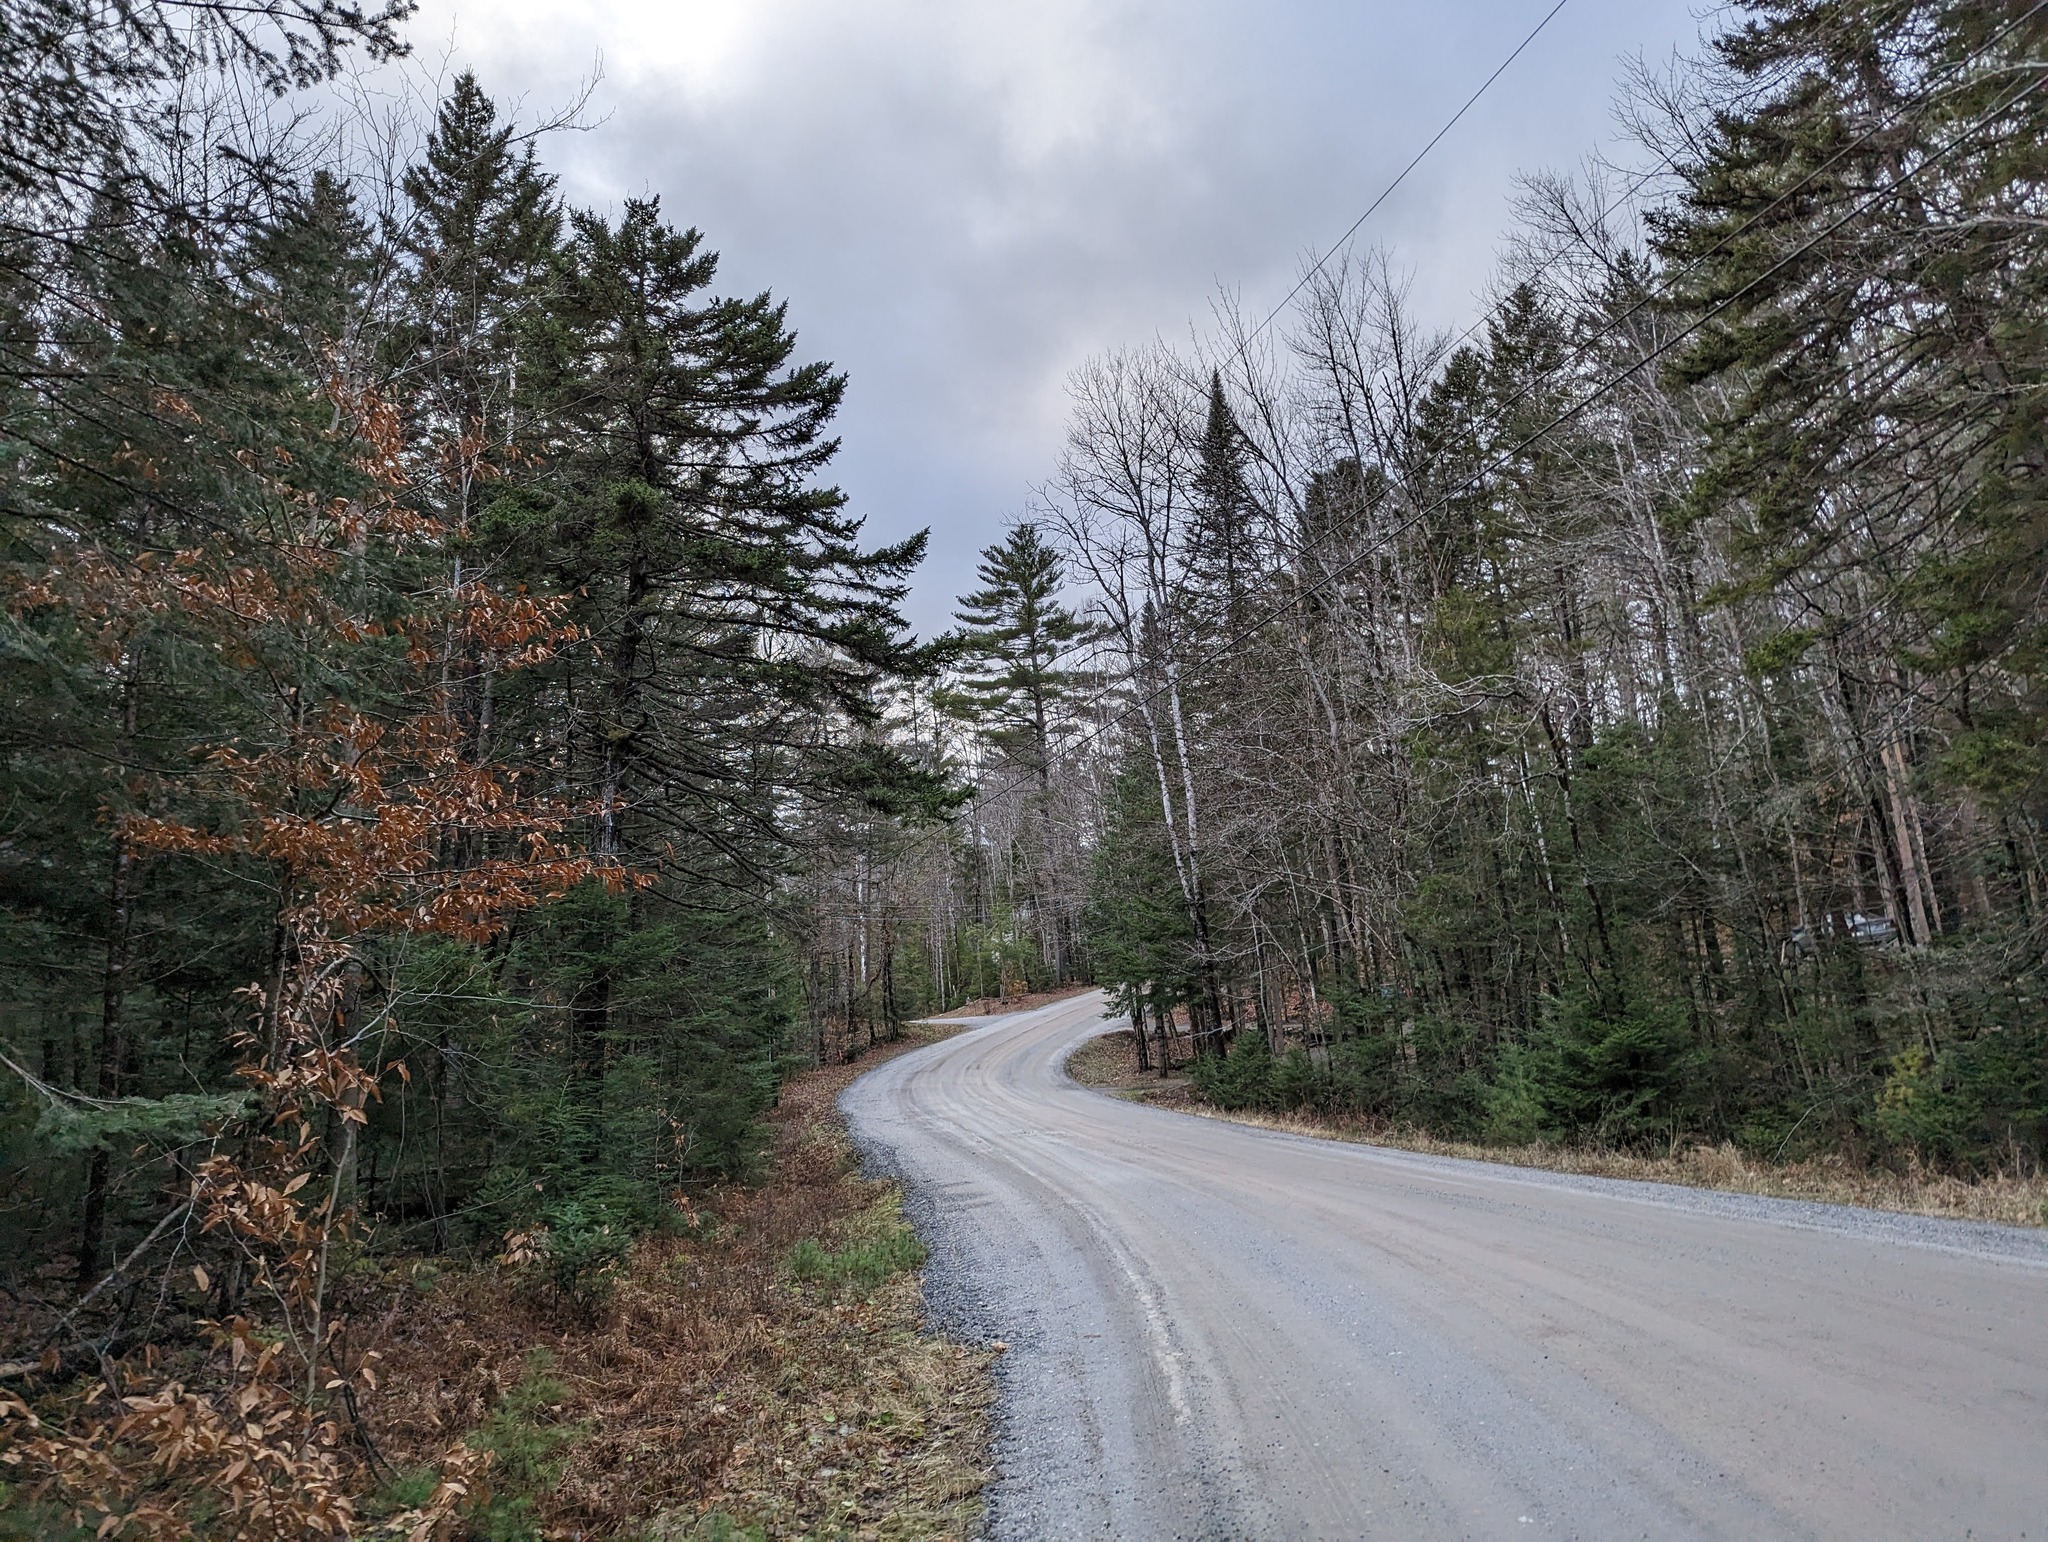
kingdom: Plantae
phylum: Tracheophyta
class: Pinopsida
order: Pinales
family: Pinaceae
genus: Pinus
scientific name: Pinus strobus
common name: Weymouth pine
